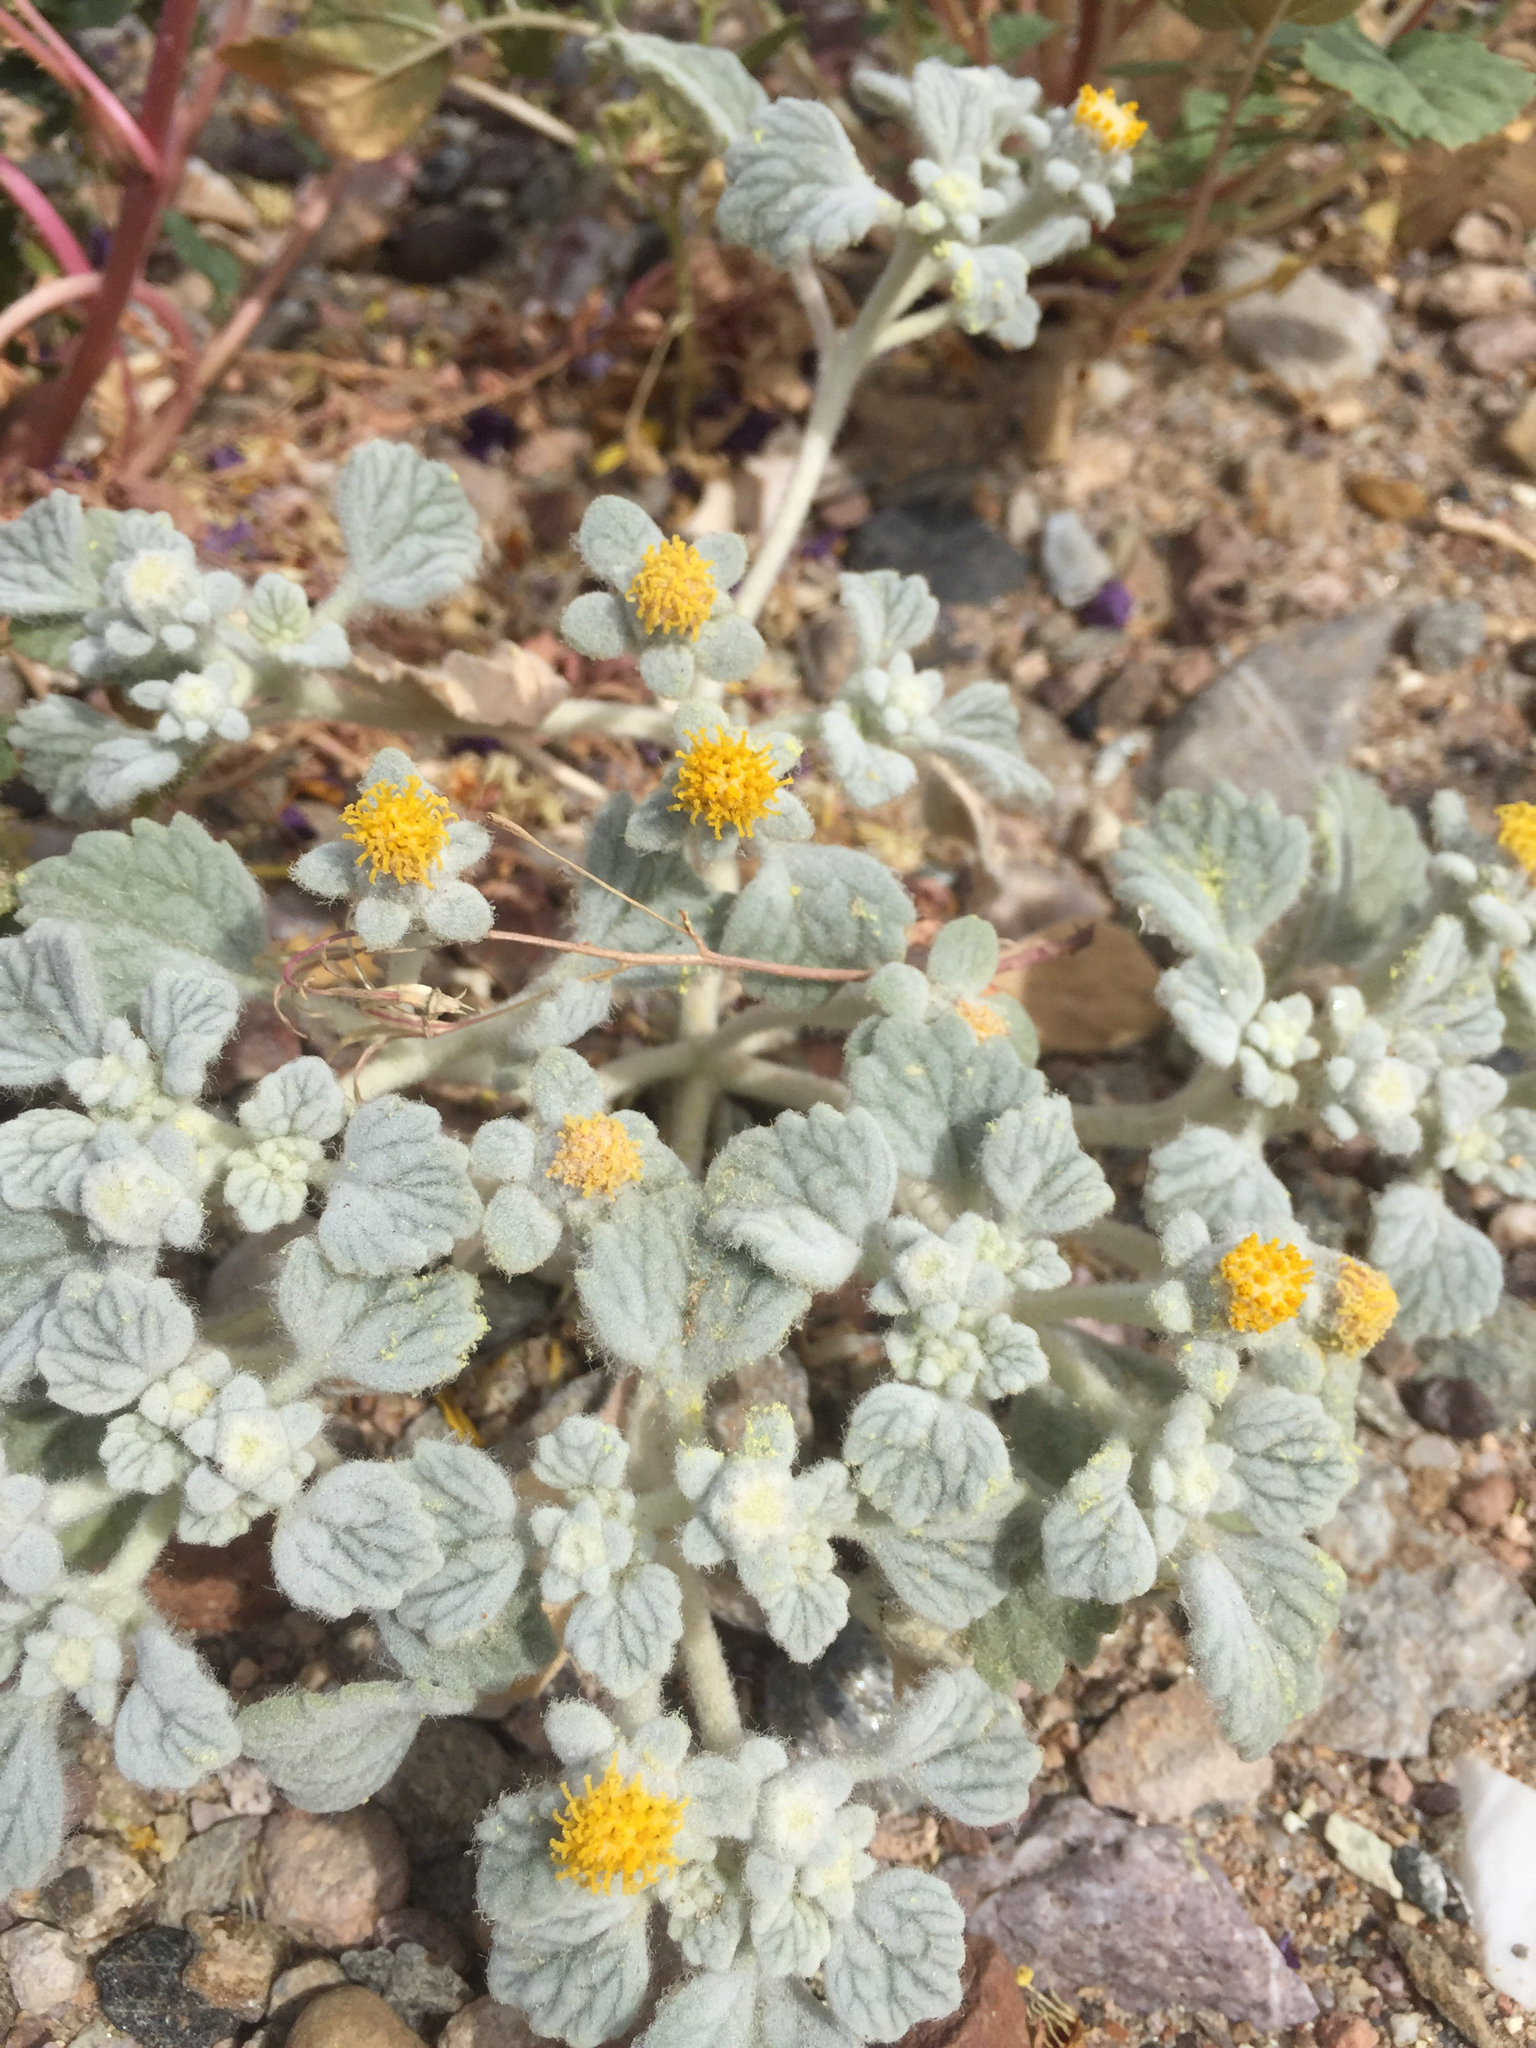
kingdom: Plantae
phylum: Tracheophyta
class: Magnoliopsida
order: Asterales
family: Asteraceae
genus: Psathyrotes
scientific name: Psathyrotes ramosissima
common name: Turtleback
